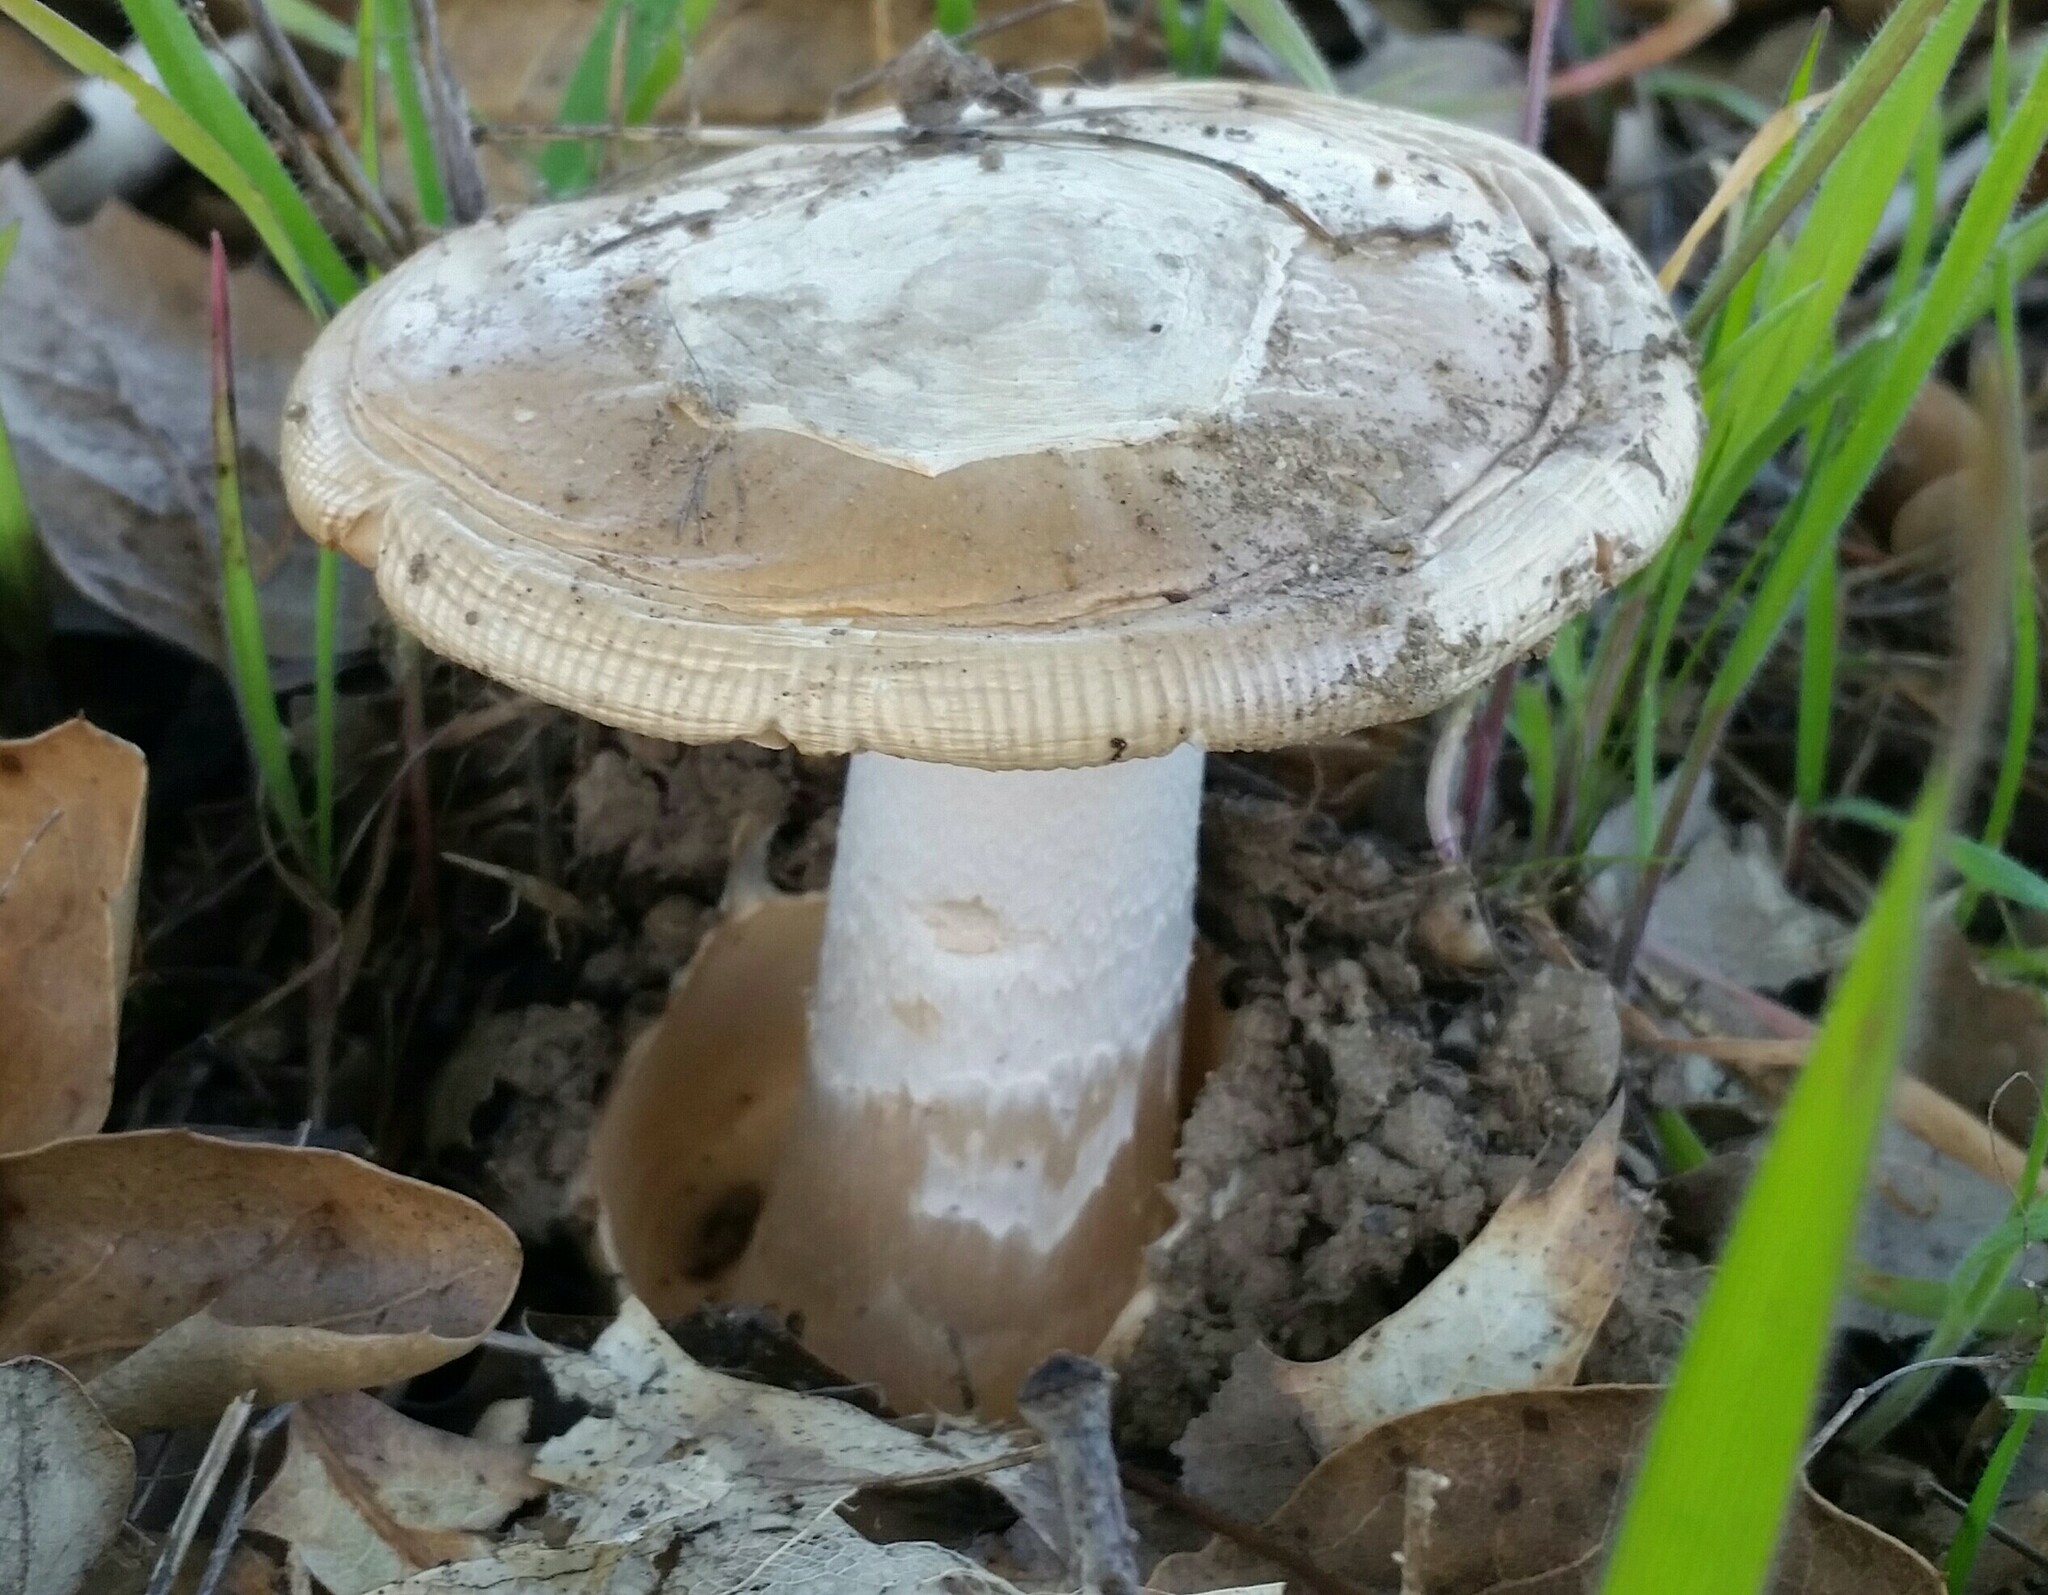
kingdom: Fungi
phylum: Basidiomycota
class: Agaricomycetes
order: Agaricales
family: Amanitaceae
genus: Amanita
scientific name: Amanita velosa
